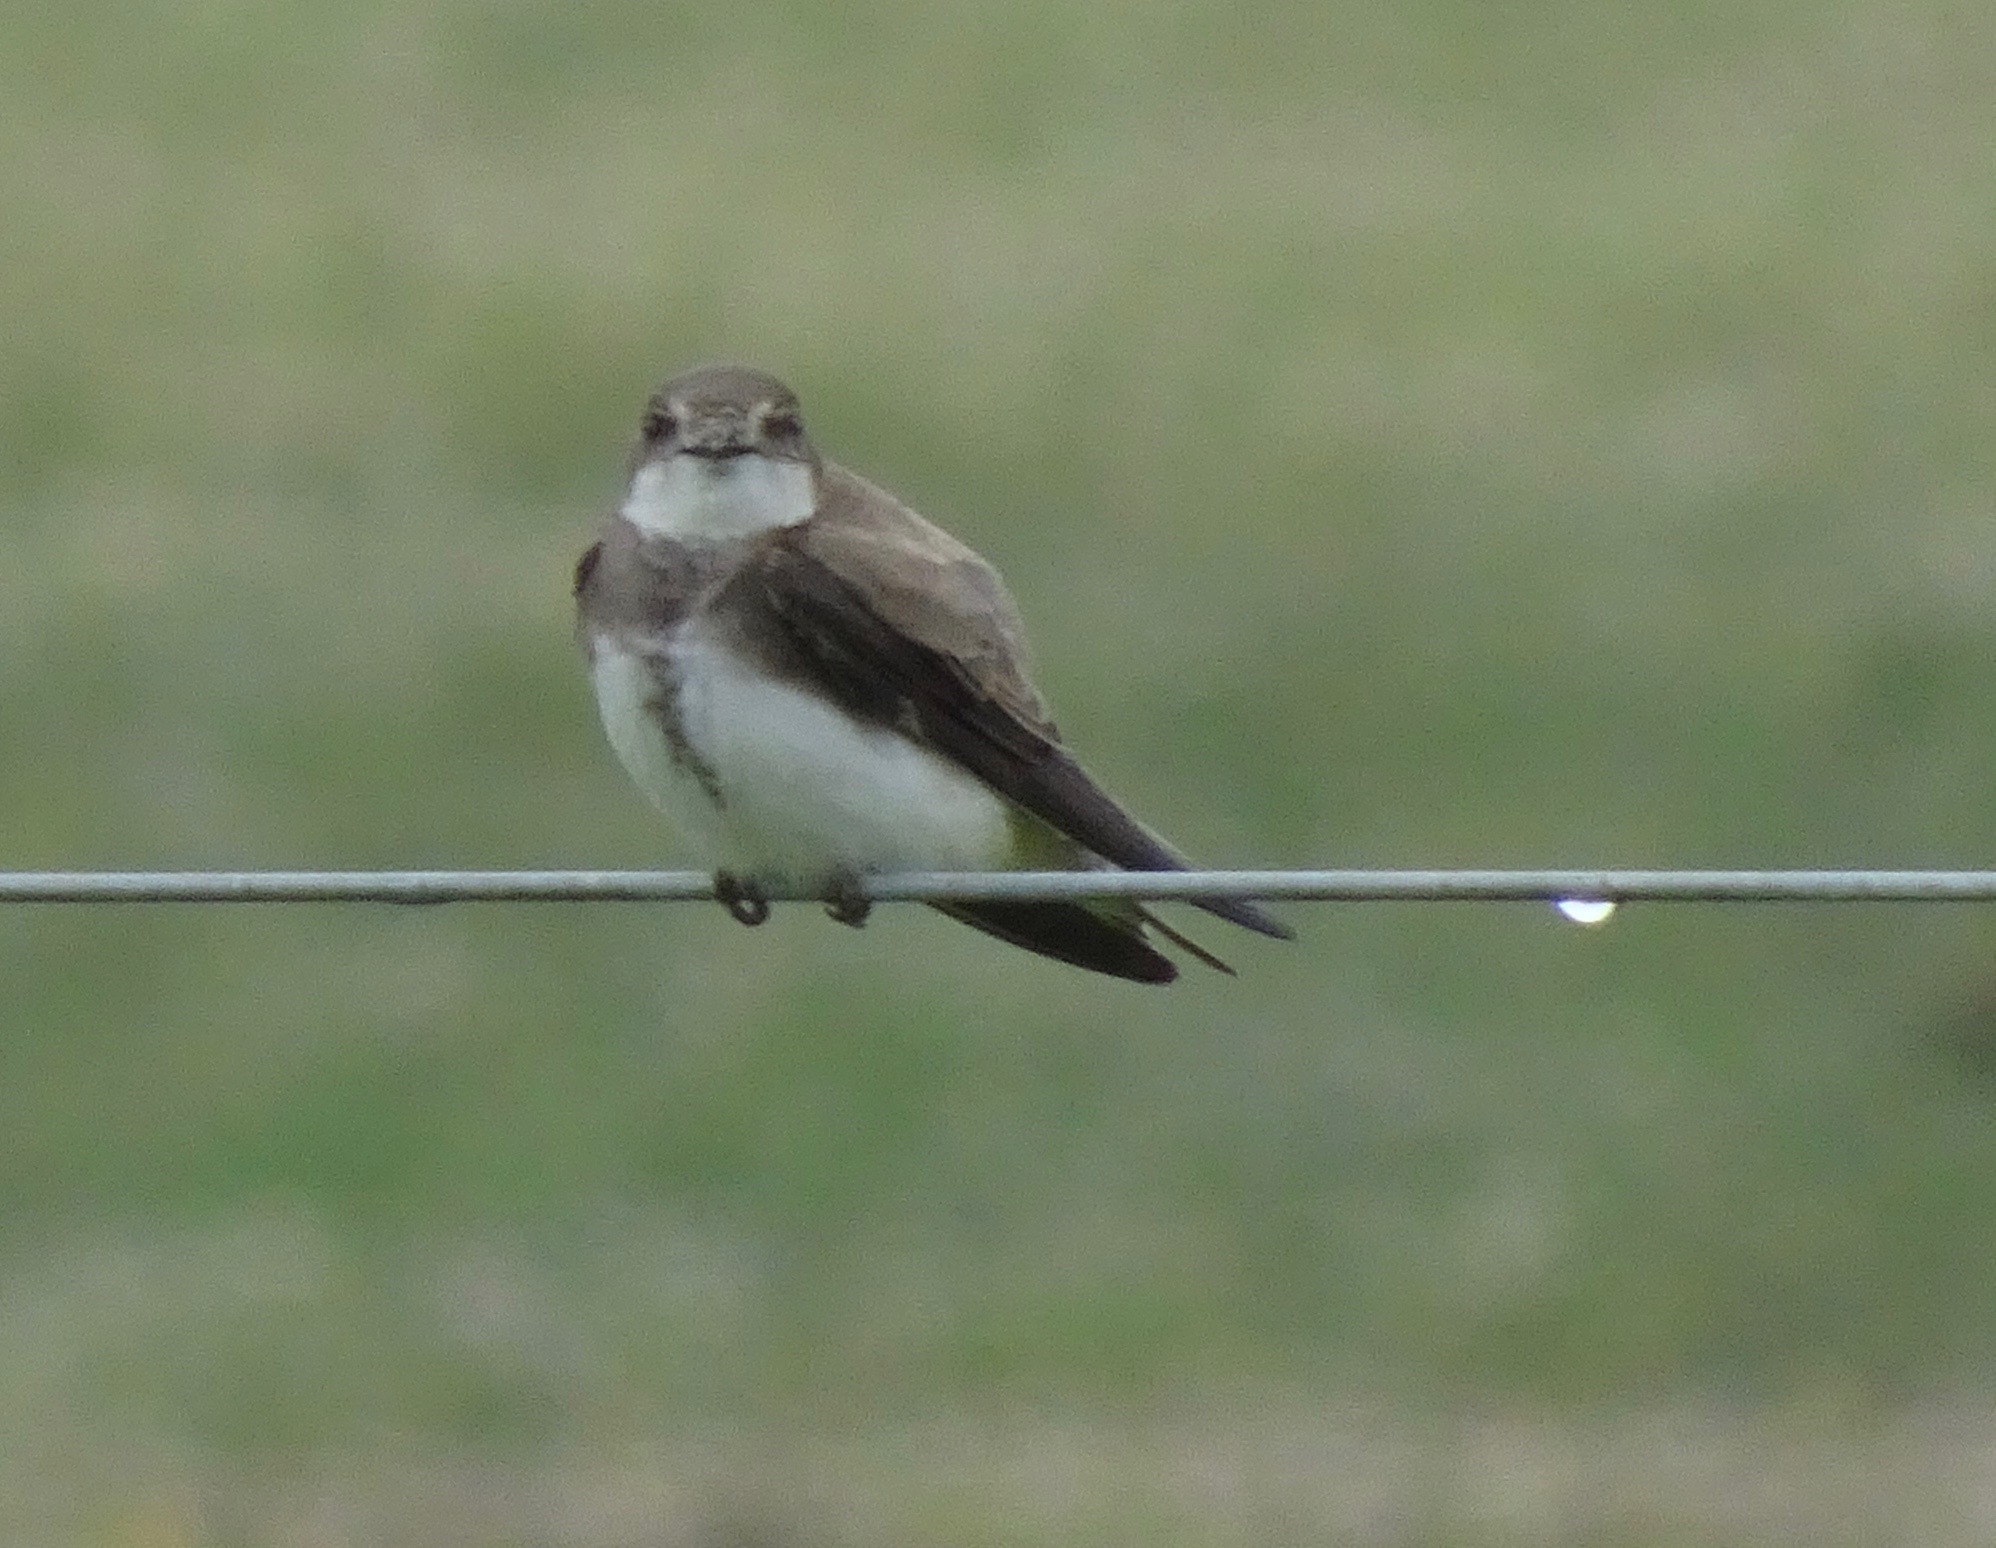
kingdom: Animalia
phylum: Chordata
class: Aves
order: Passeriformes
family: Hirundinidae
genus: Riparia
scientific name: Riparia riparia
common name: Sand martin
